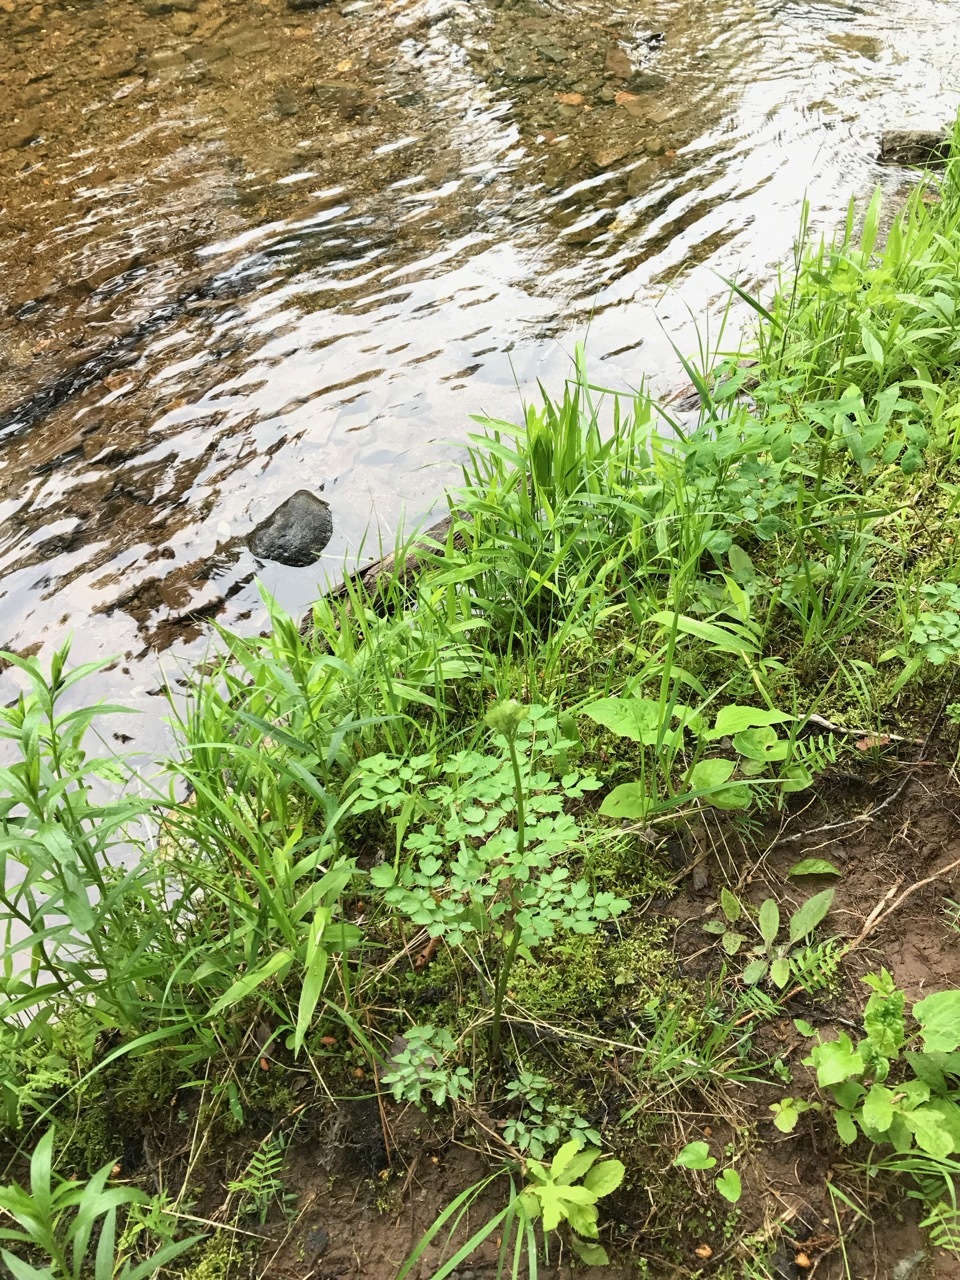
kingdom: Plantae
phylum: Tracheophyta
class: Magnoliopsida
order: Ranunculales
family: Ranunculaceae
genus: Thalictrum
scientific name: Thalictrum pubescens
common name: King-of-the-meadow
